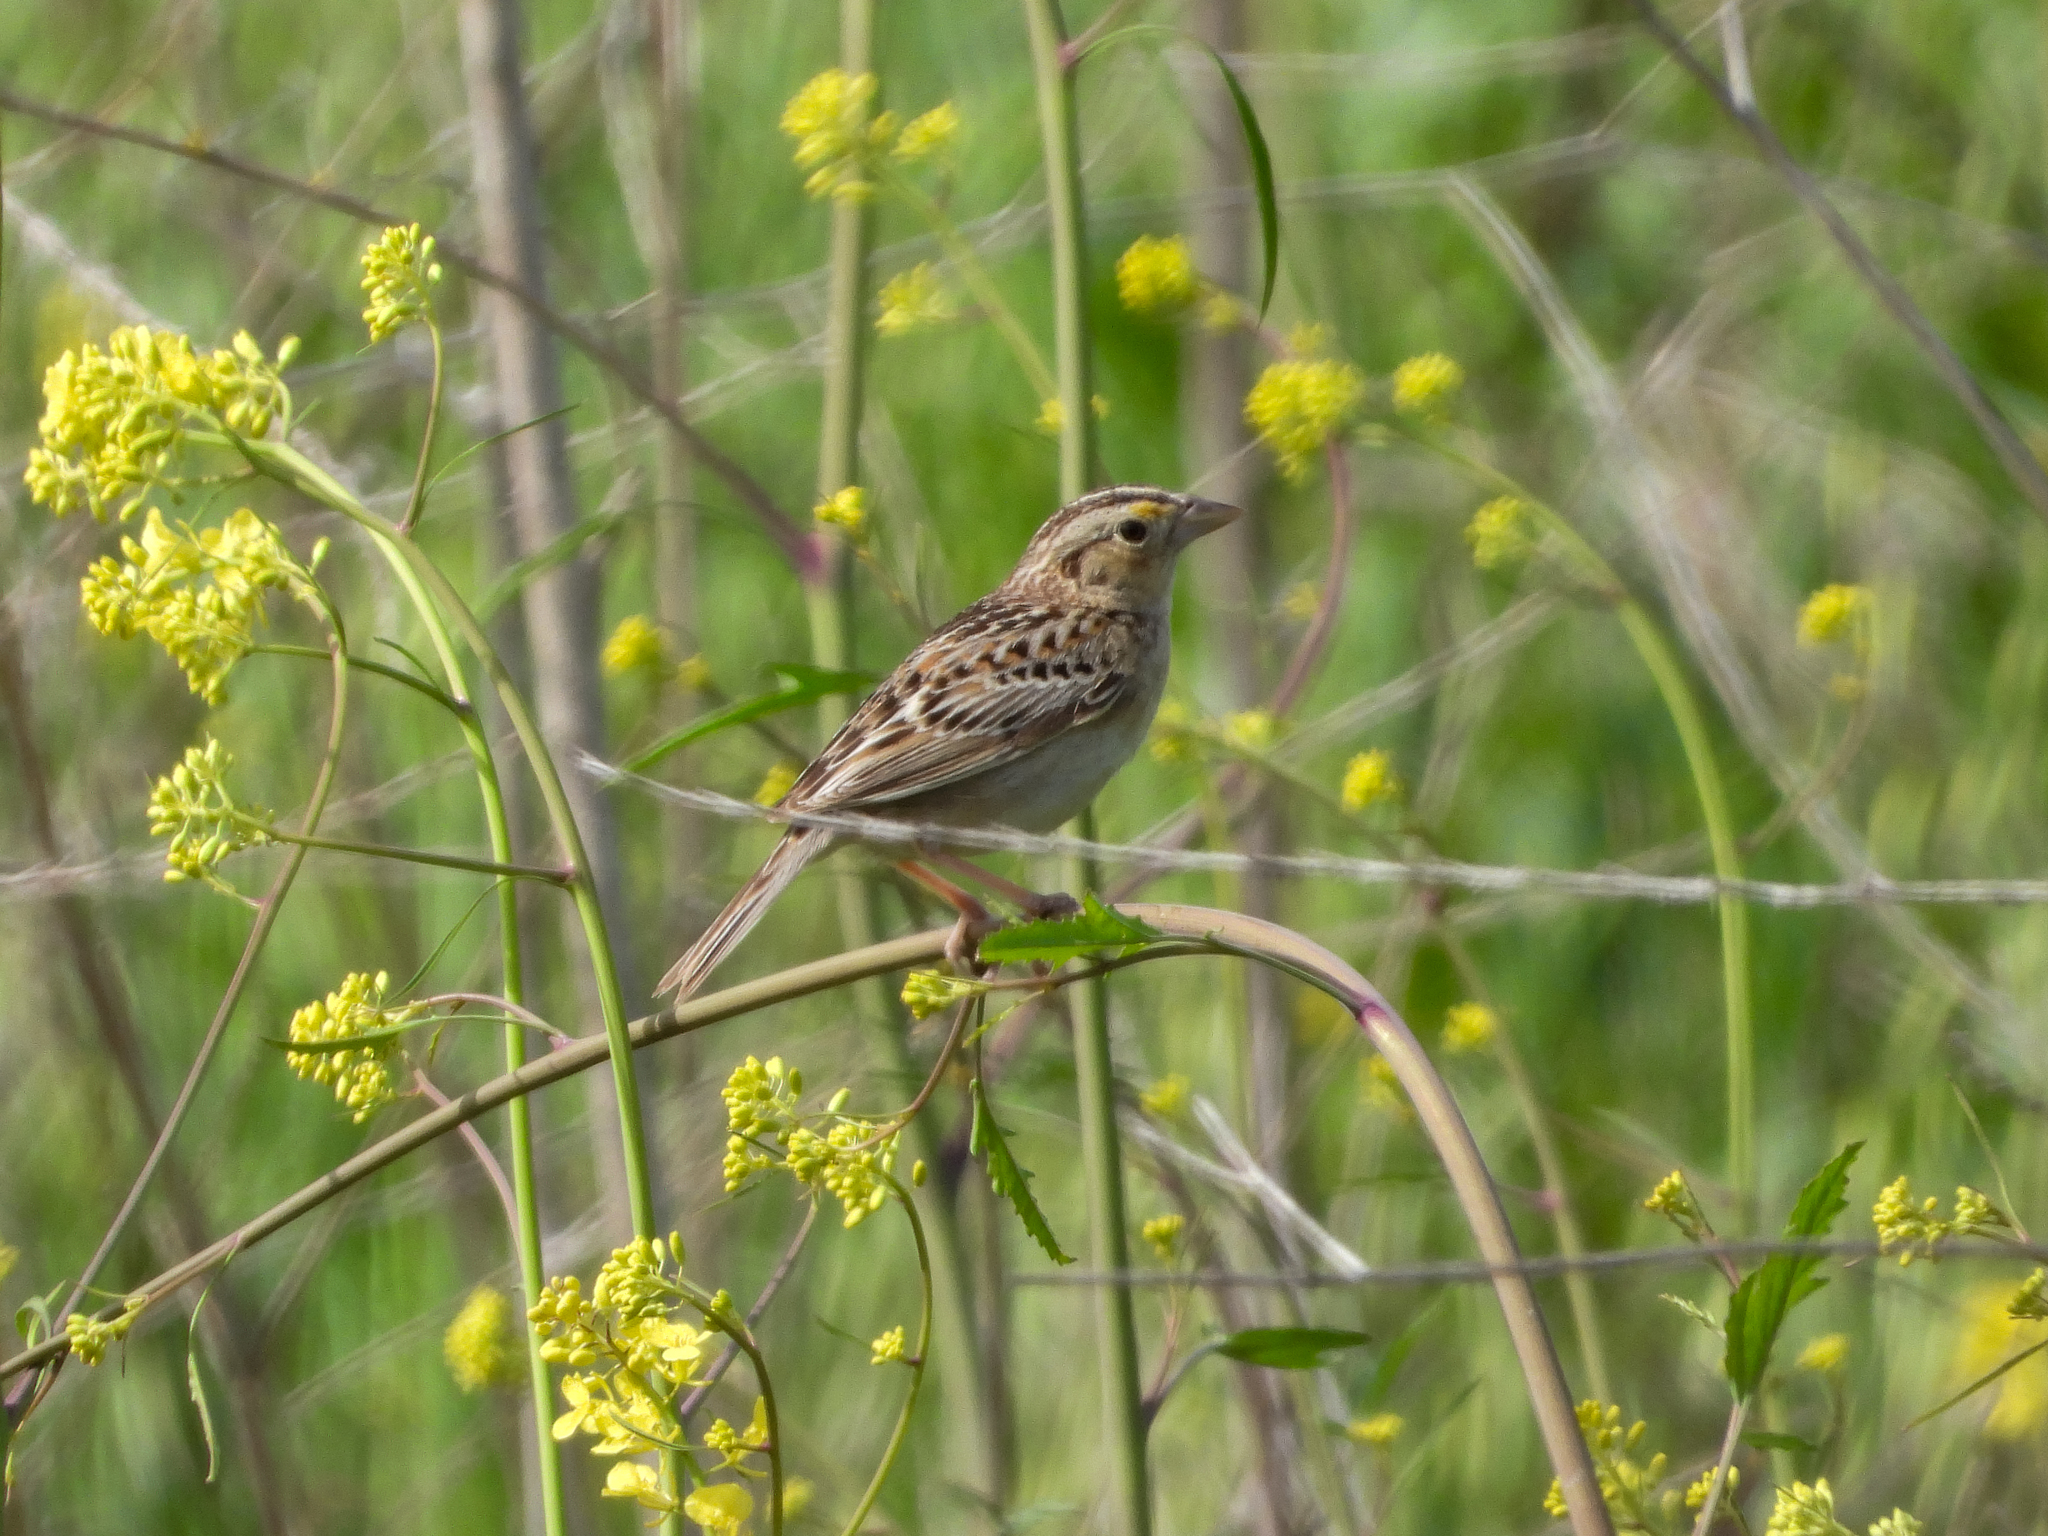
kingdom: Animalia
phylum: Chordata
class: Aves
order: Passeriformes
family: Passerellidae
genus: Ammodramus
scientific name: Ammodramus savannarum
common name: Grasshopper sparrow
